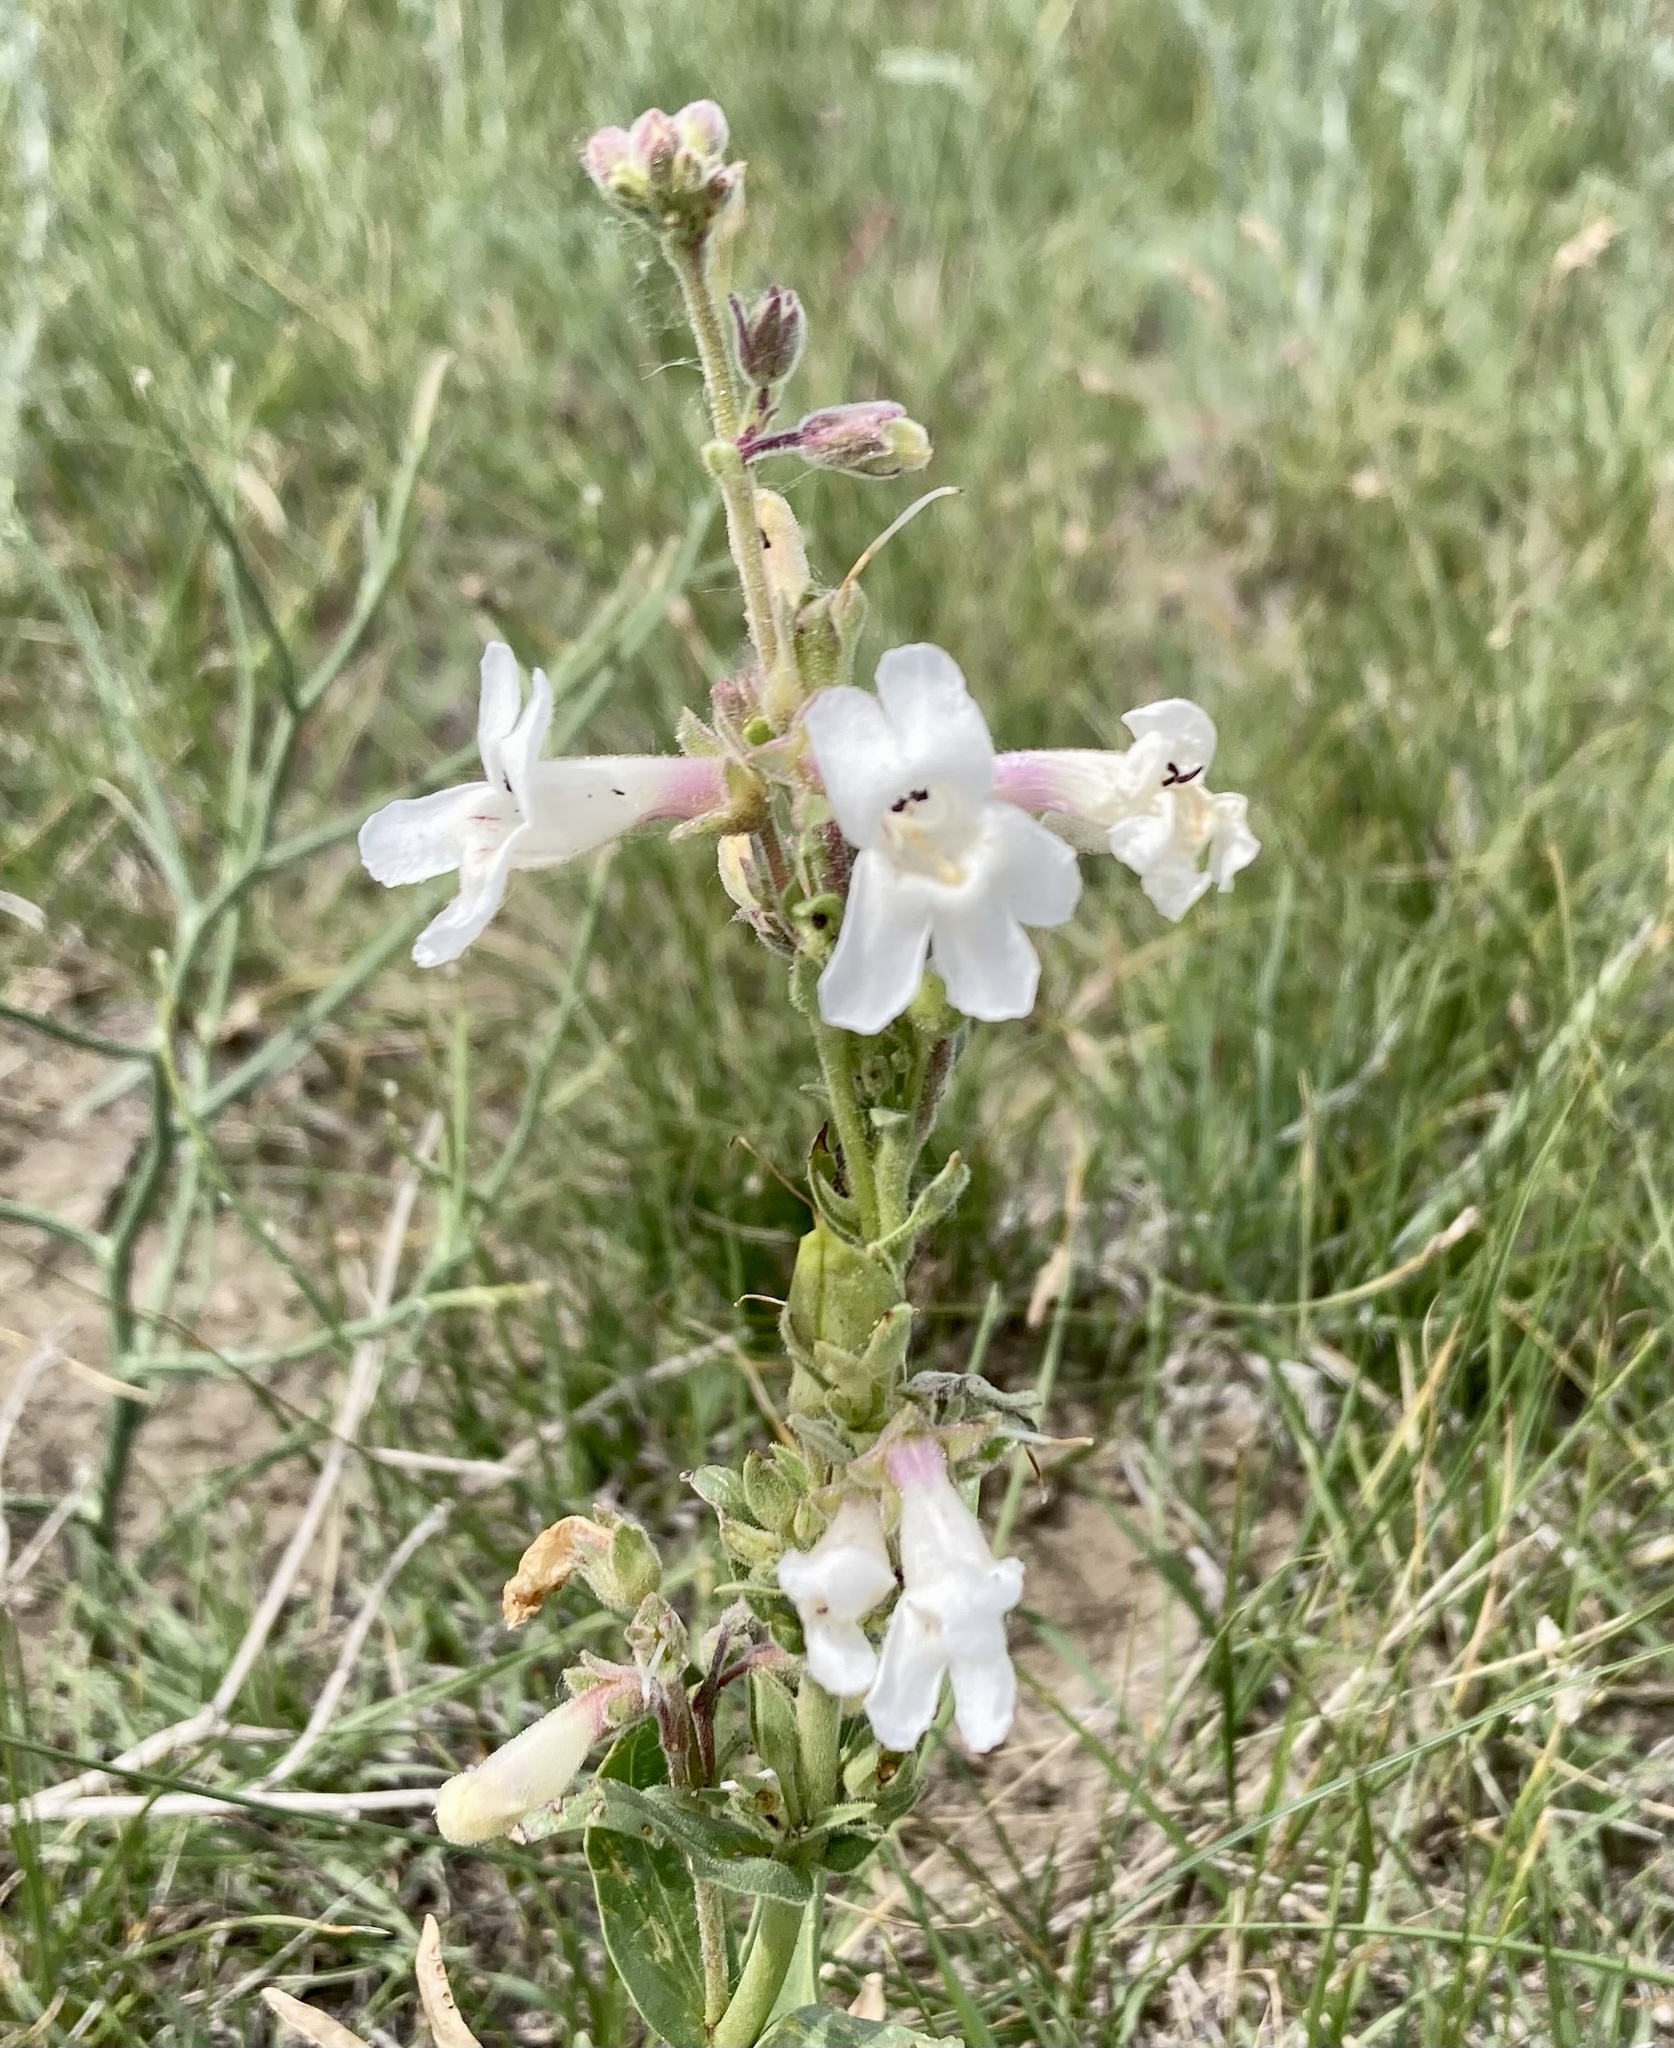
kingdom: Plantae
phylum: Tracheophyta
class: Magnoliopsida
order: Lamiales
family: Plantaginaceae
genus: Penstemon
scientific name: Penstemon albidus
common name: White beardtongue
